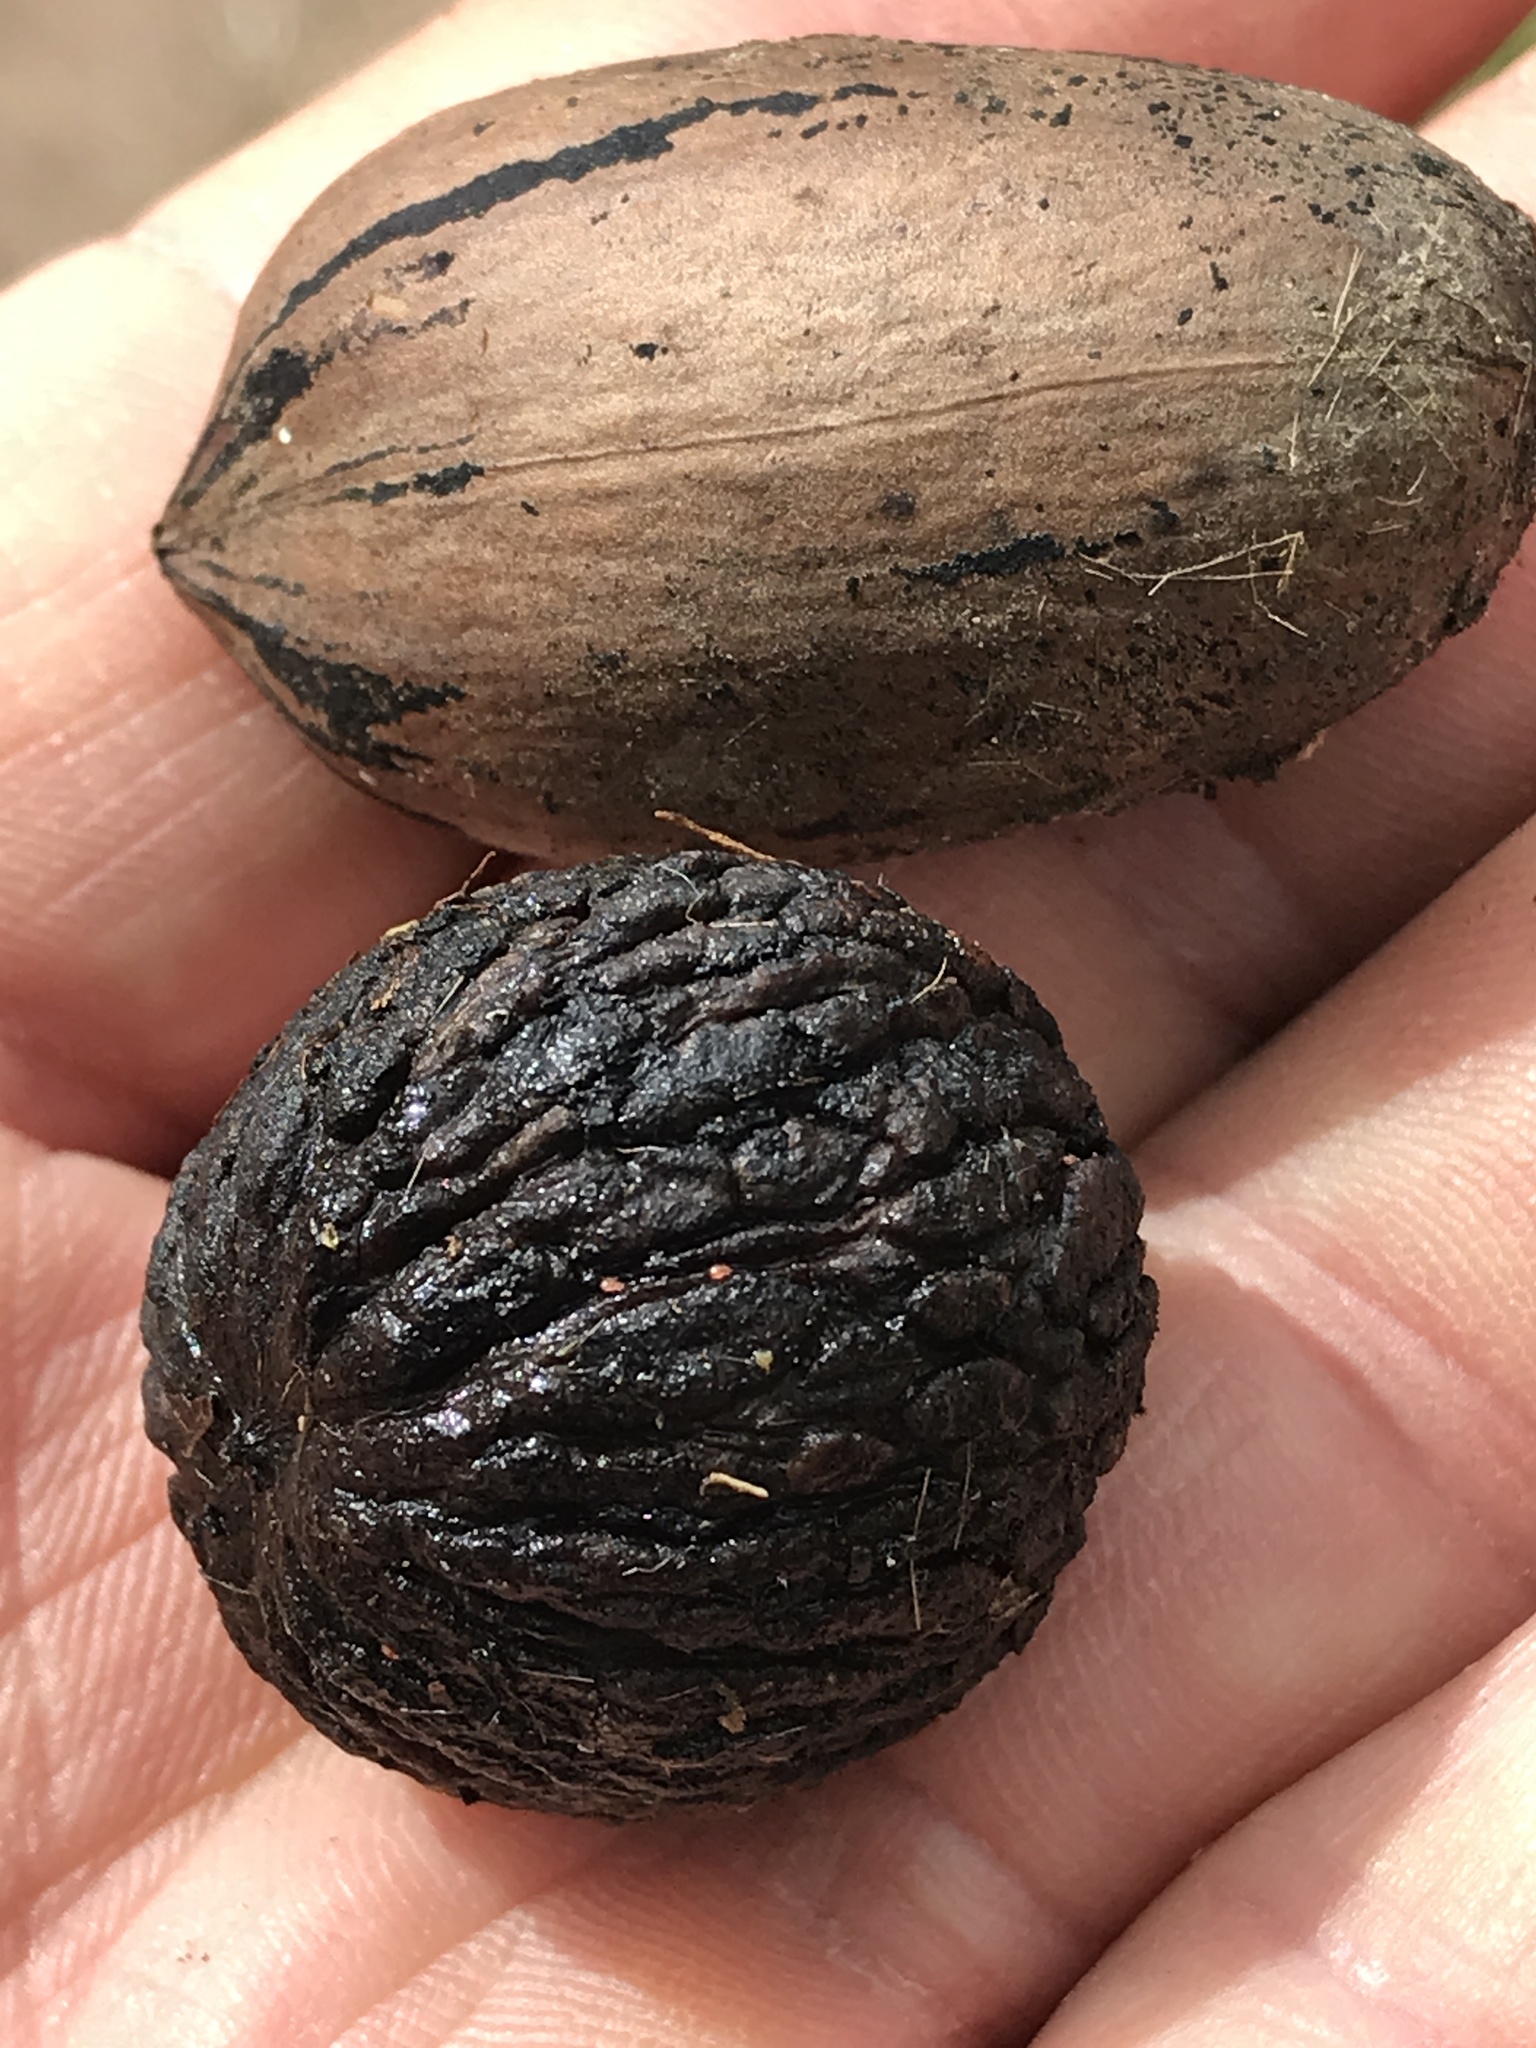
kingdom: Plantae
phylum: Tracheophyta
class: Magnoliopsida
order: Fagales
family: Juglandaceae
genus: Juglans
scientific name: Juglans nigra
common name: Black walnut
